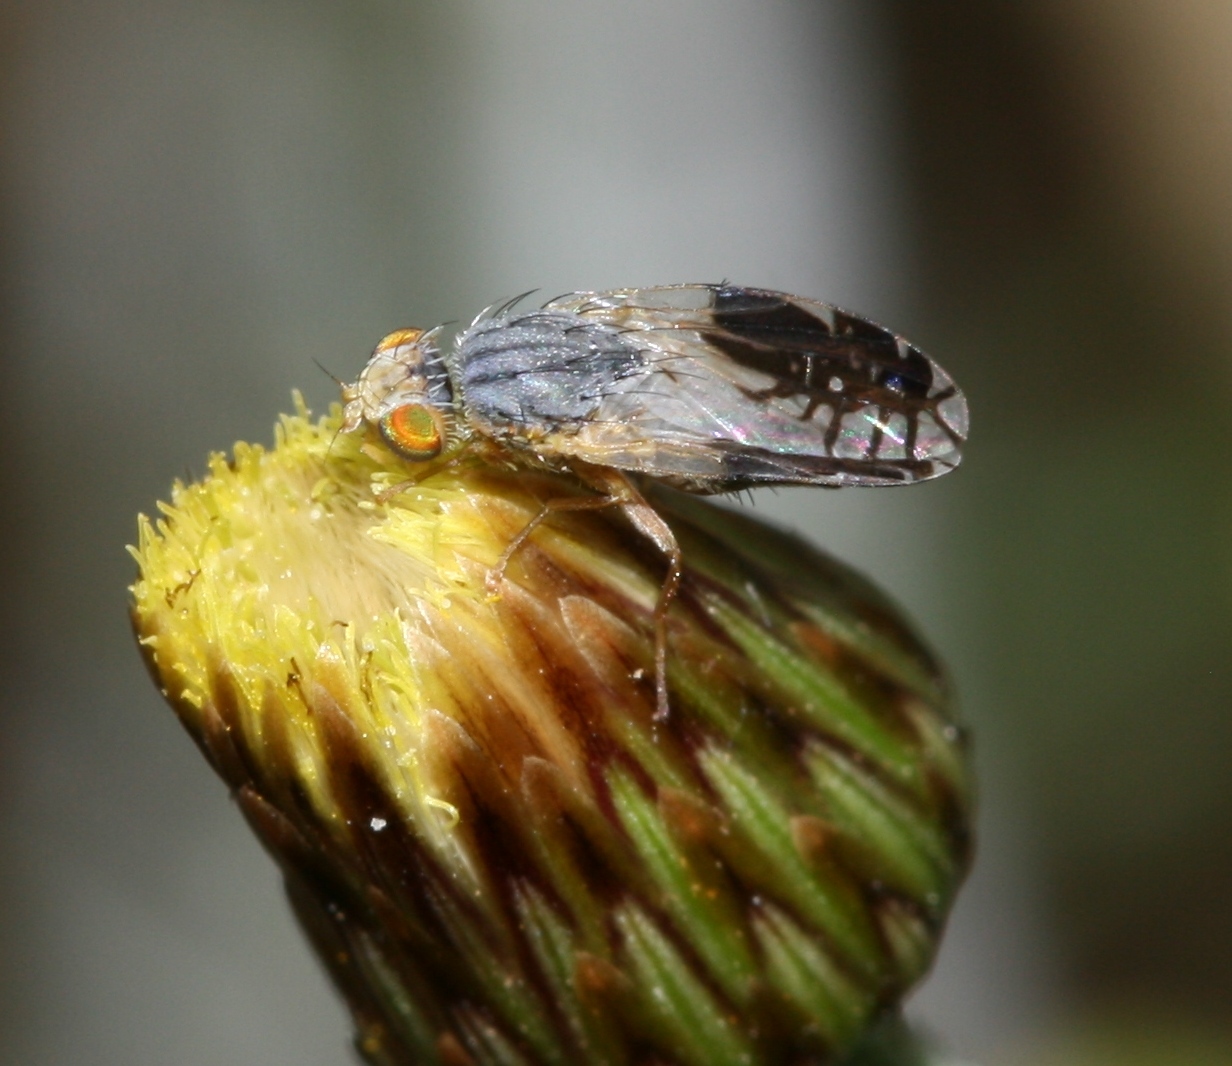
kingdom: Animalia
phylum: Arthropoda
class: Insecta
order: Diptera
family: Tephritidae
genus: Capitites
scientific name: Capitites ramulosa
